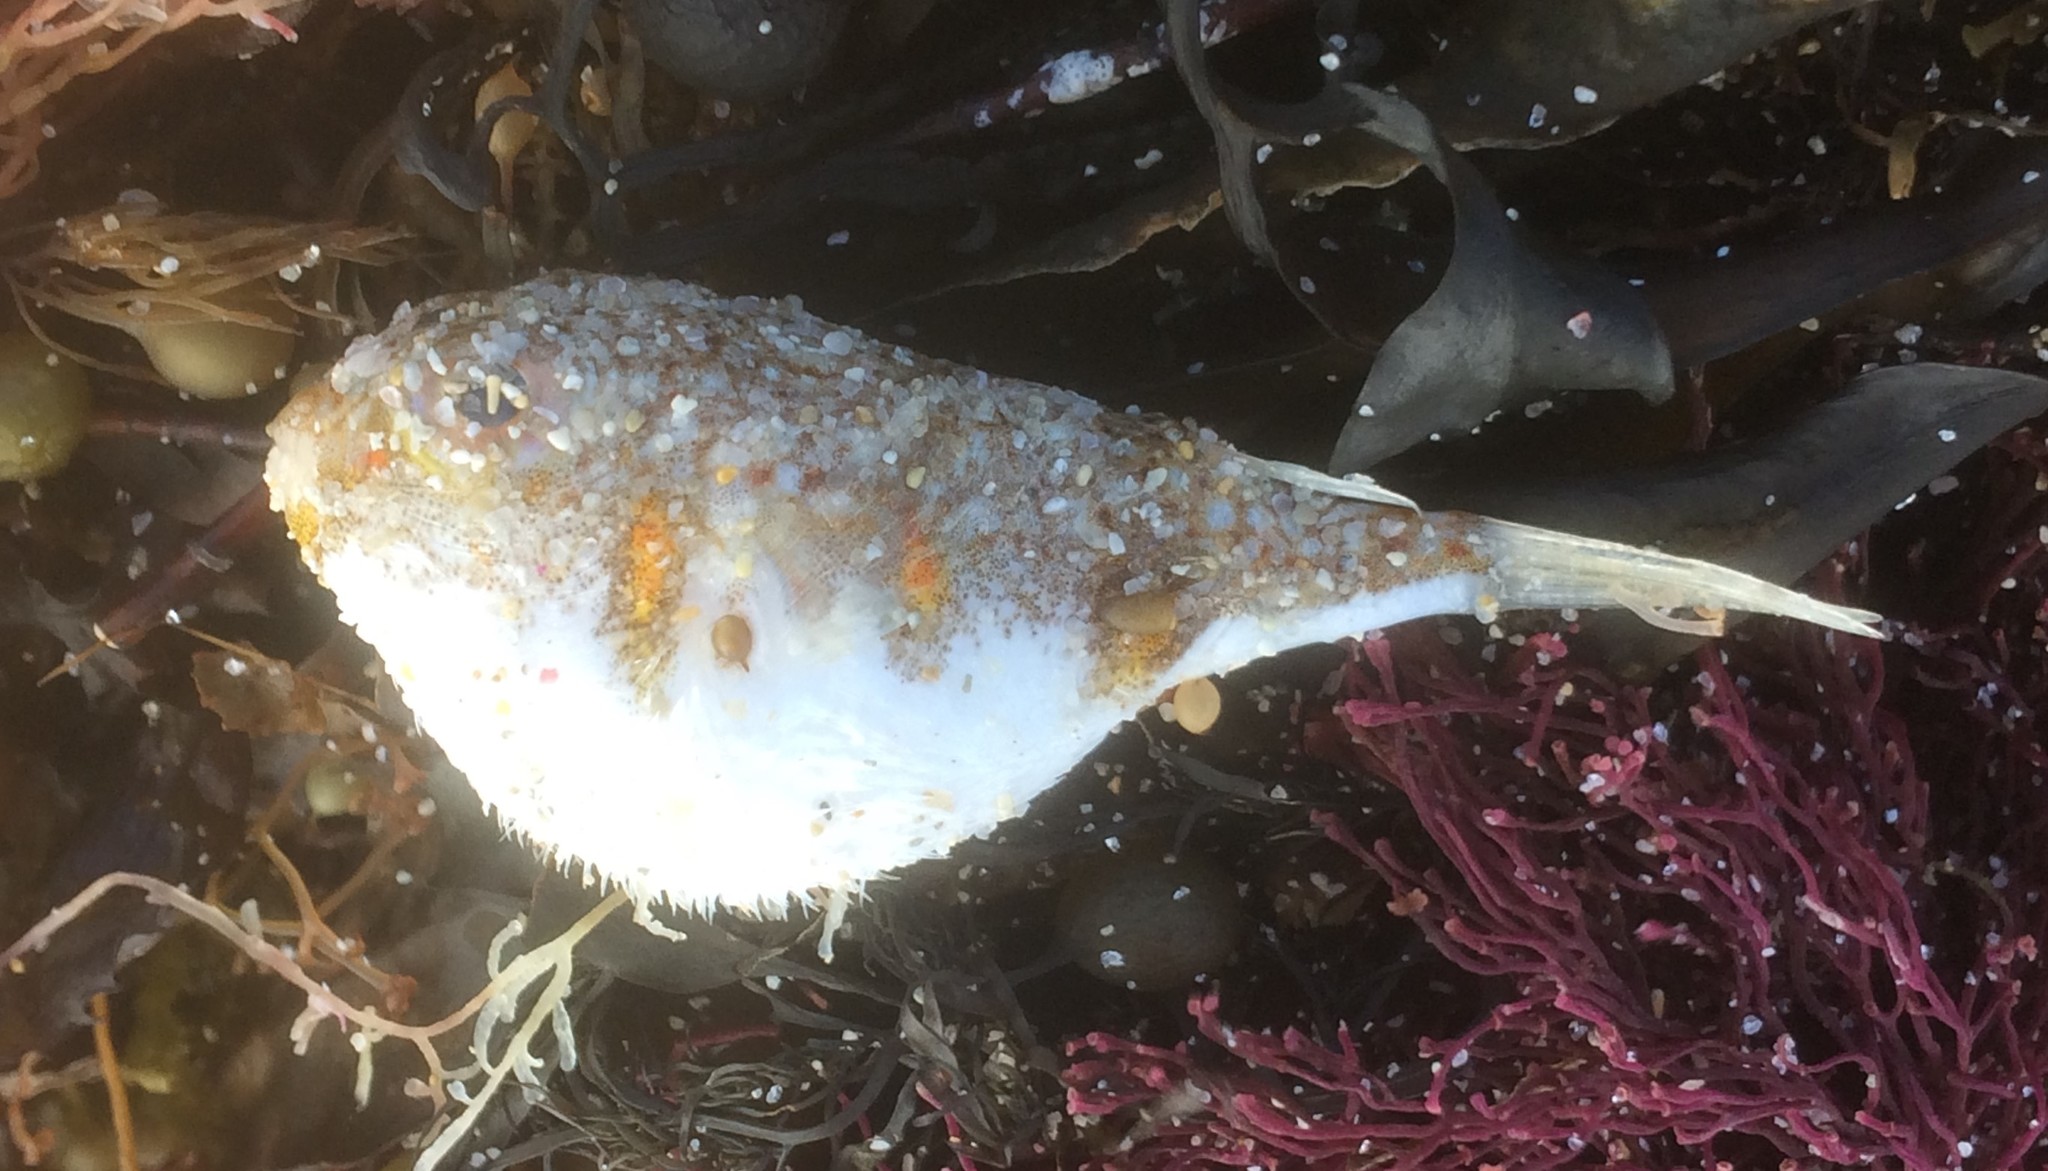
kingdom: Animalia
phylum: Chordata
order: Tetraodontiformes
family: Tetraodontidae
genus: Polyspina
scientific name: Polyspina piosae
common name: Orange-barred pufferfish
